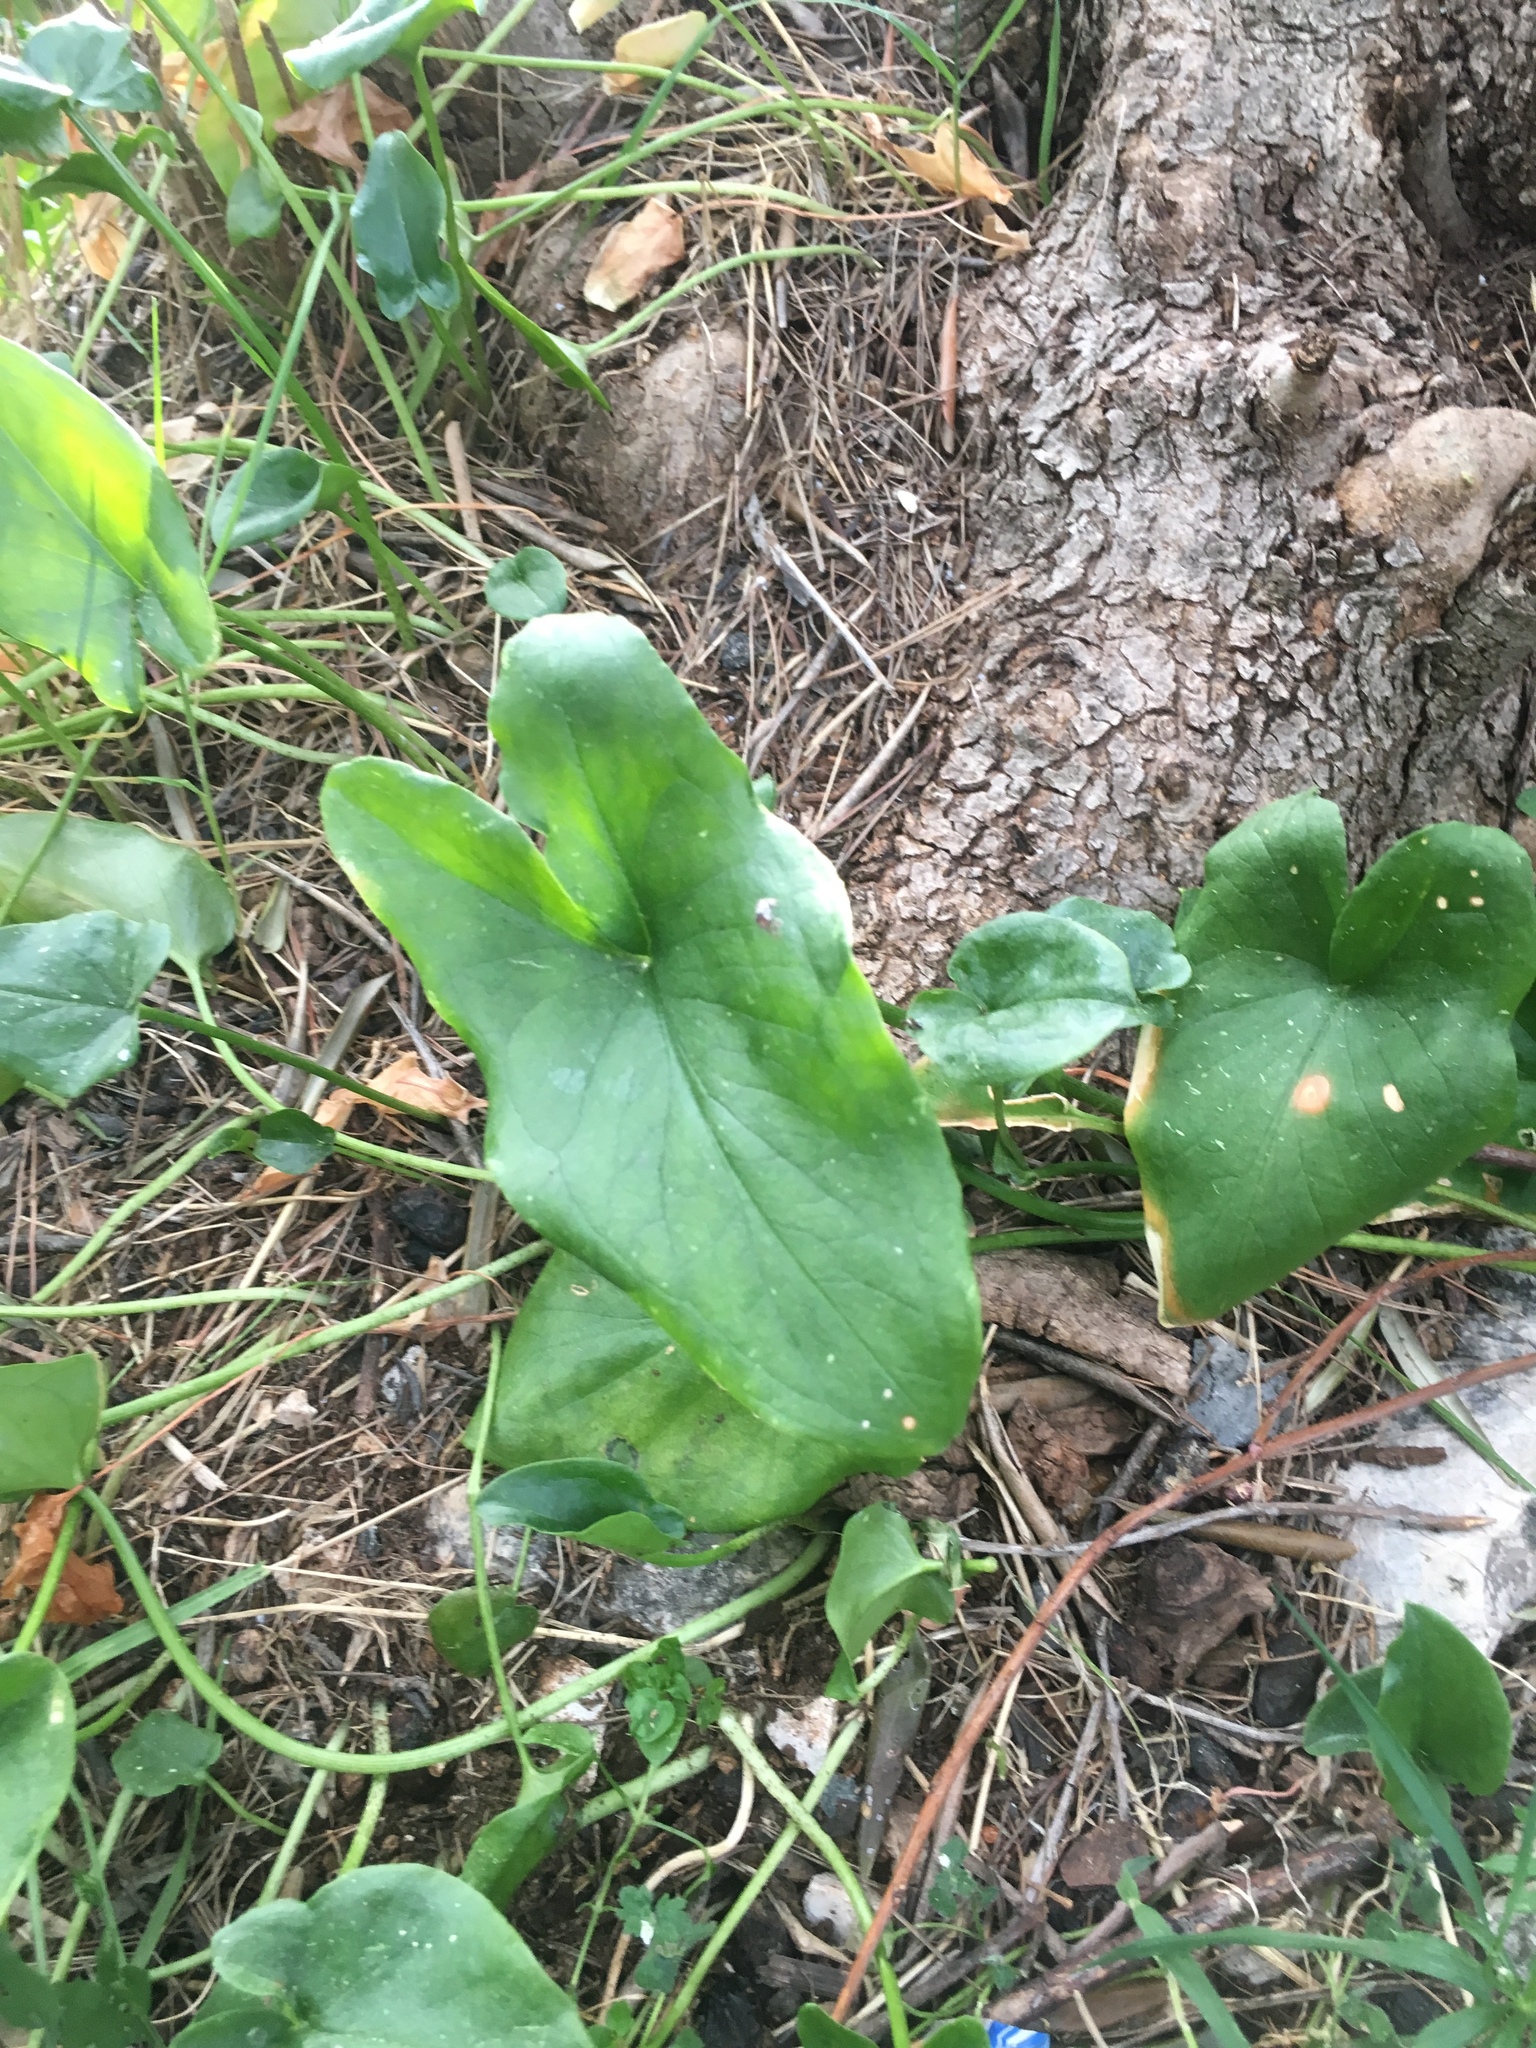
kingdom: Plantae
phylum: Tracheophyta
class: Liliopsida
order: Alismatales
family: Araceae
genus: Zantedeschia
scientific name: Zantedeschia aethiopica
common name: Altar-lily
